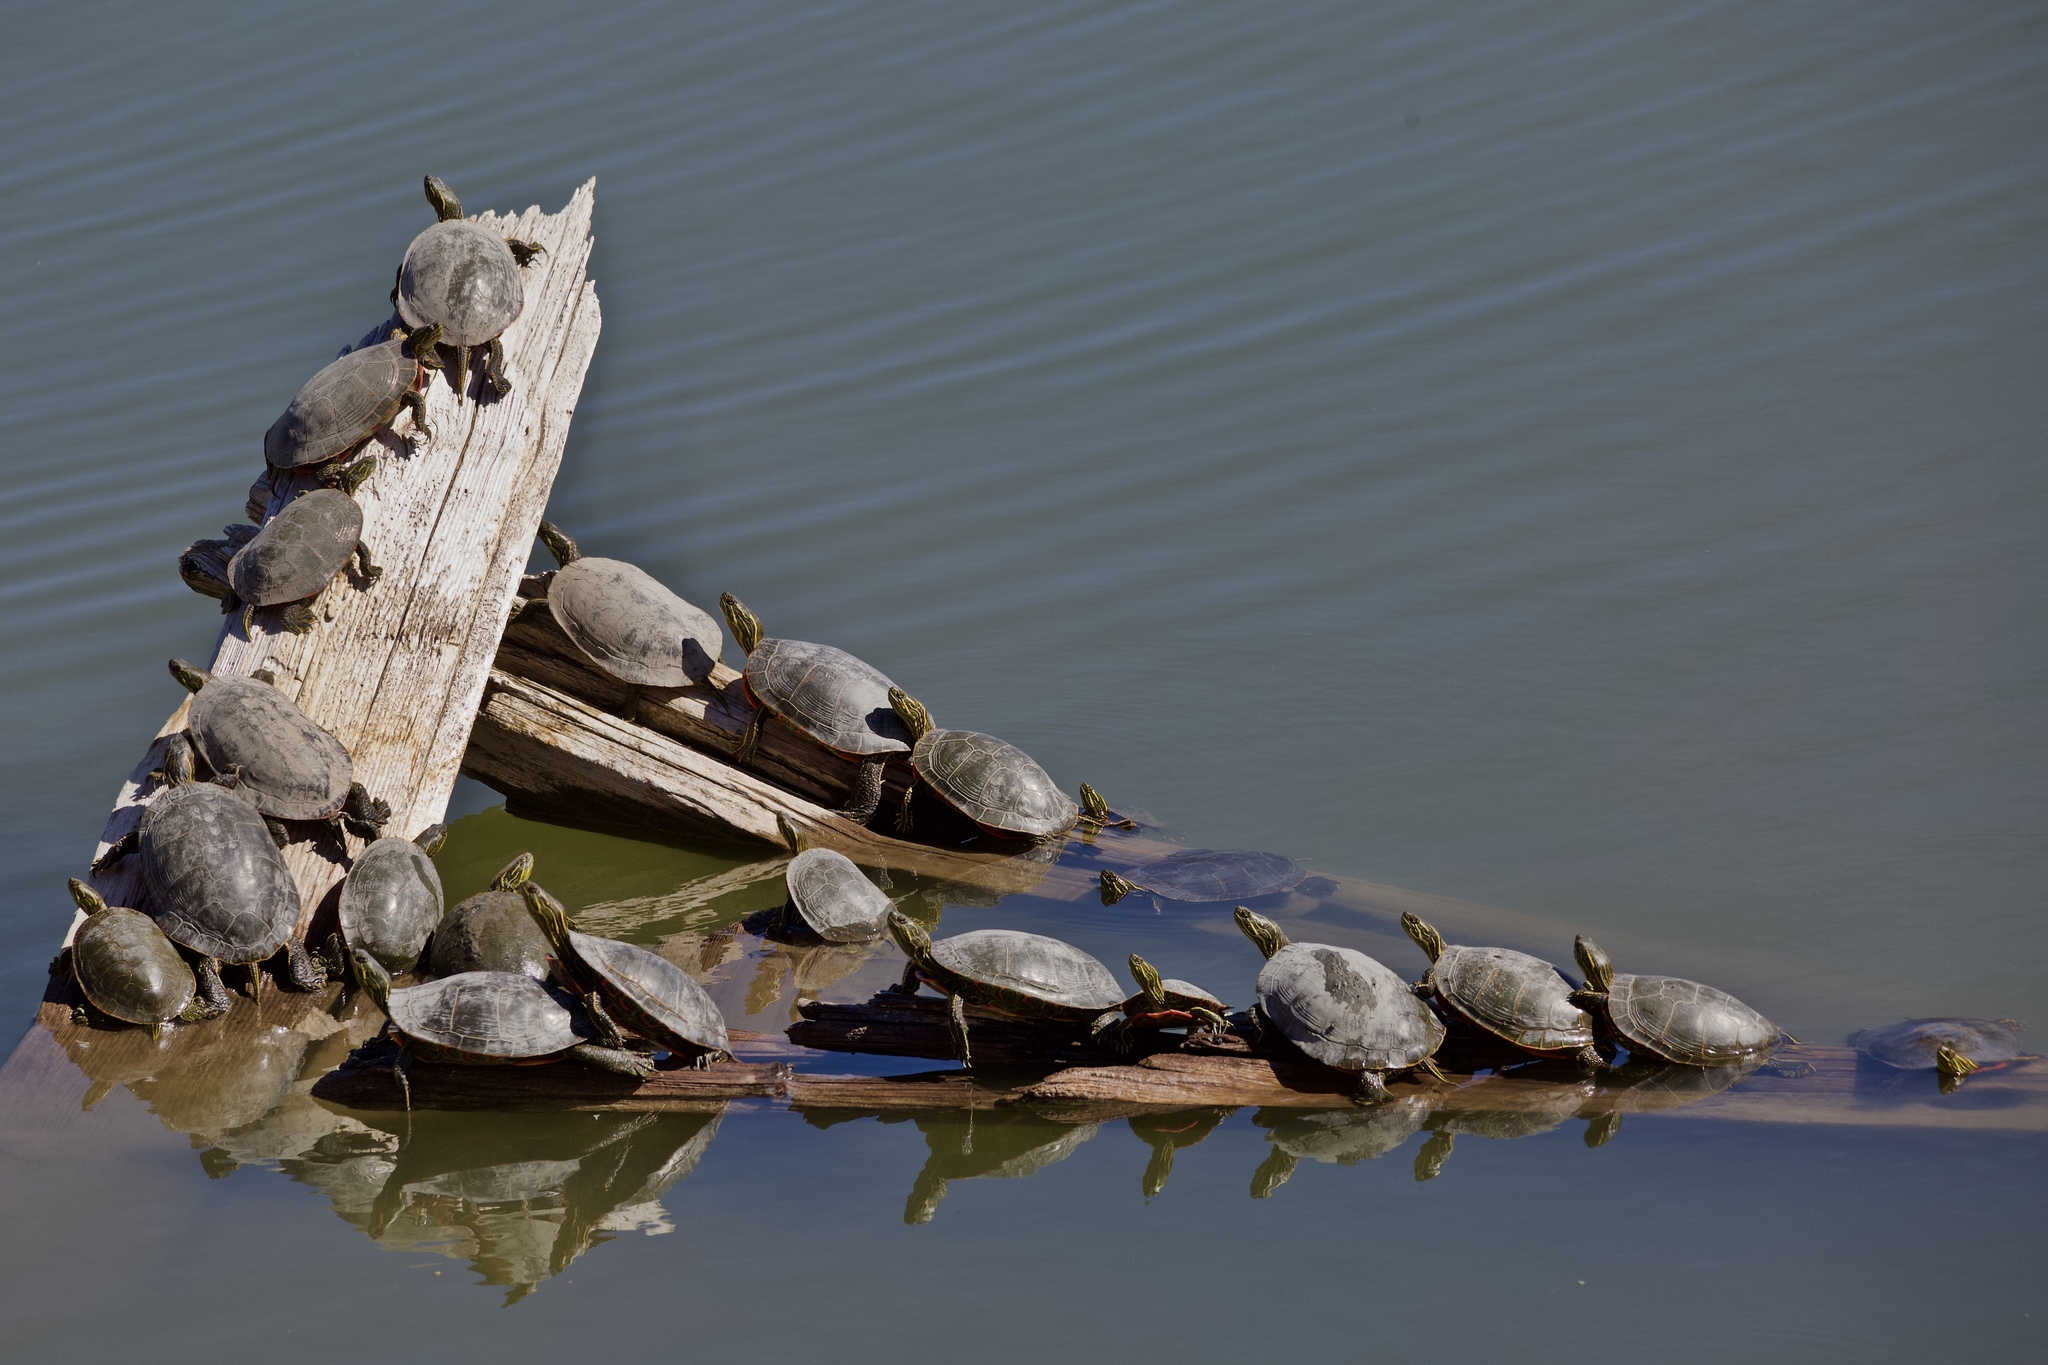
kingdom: Animalia
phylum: Chordata
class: Testudines
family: Emydidae
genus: Chrysemys
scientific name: Chrysemys picta
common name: Painted turtle
